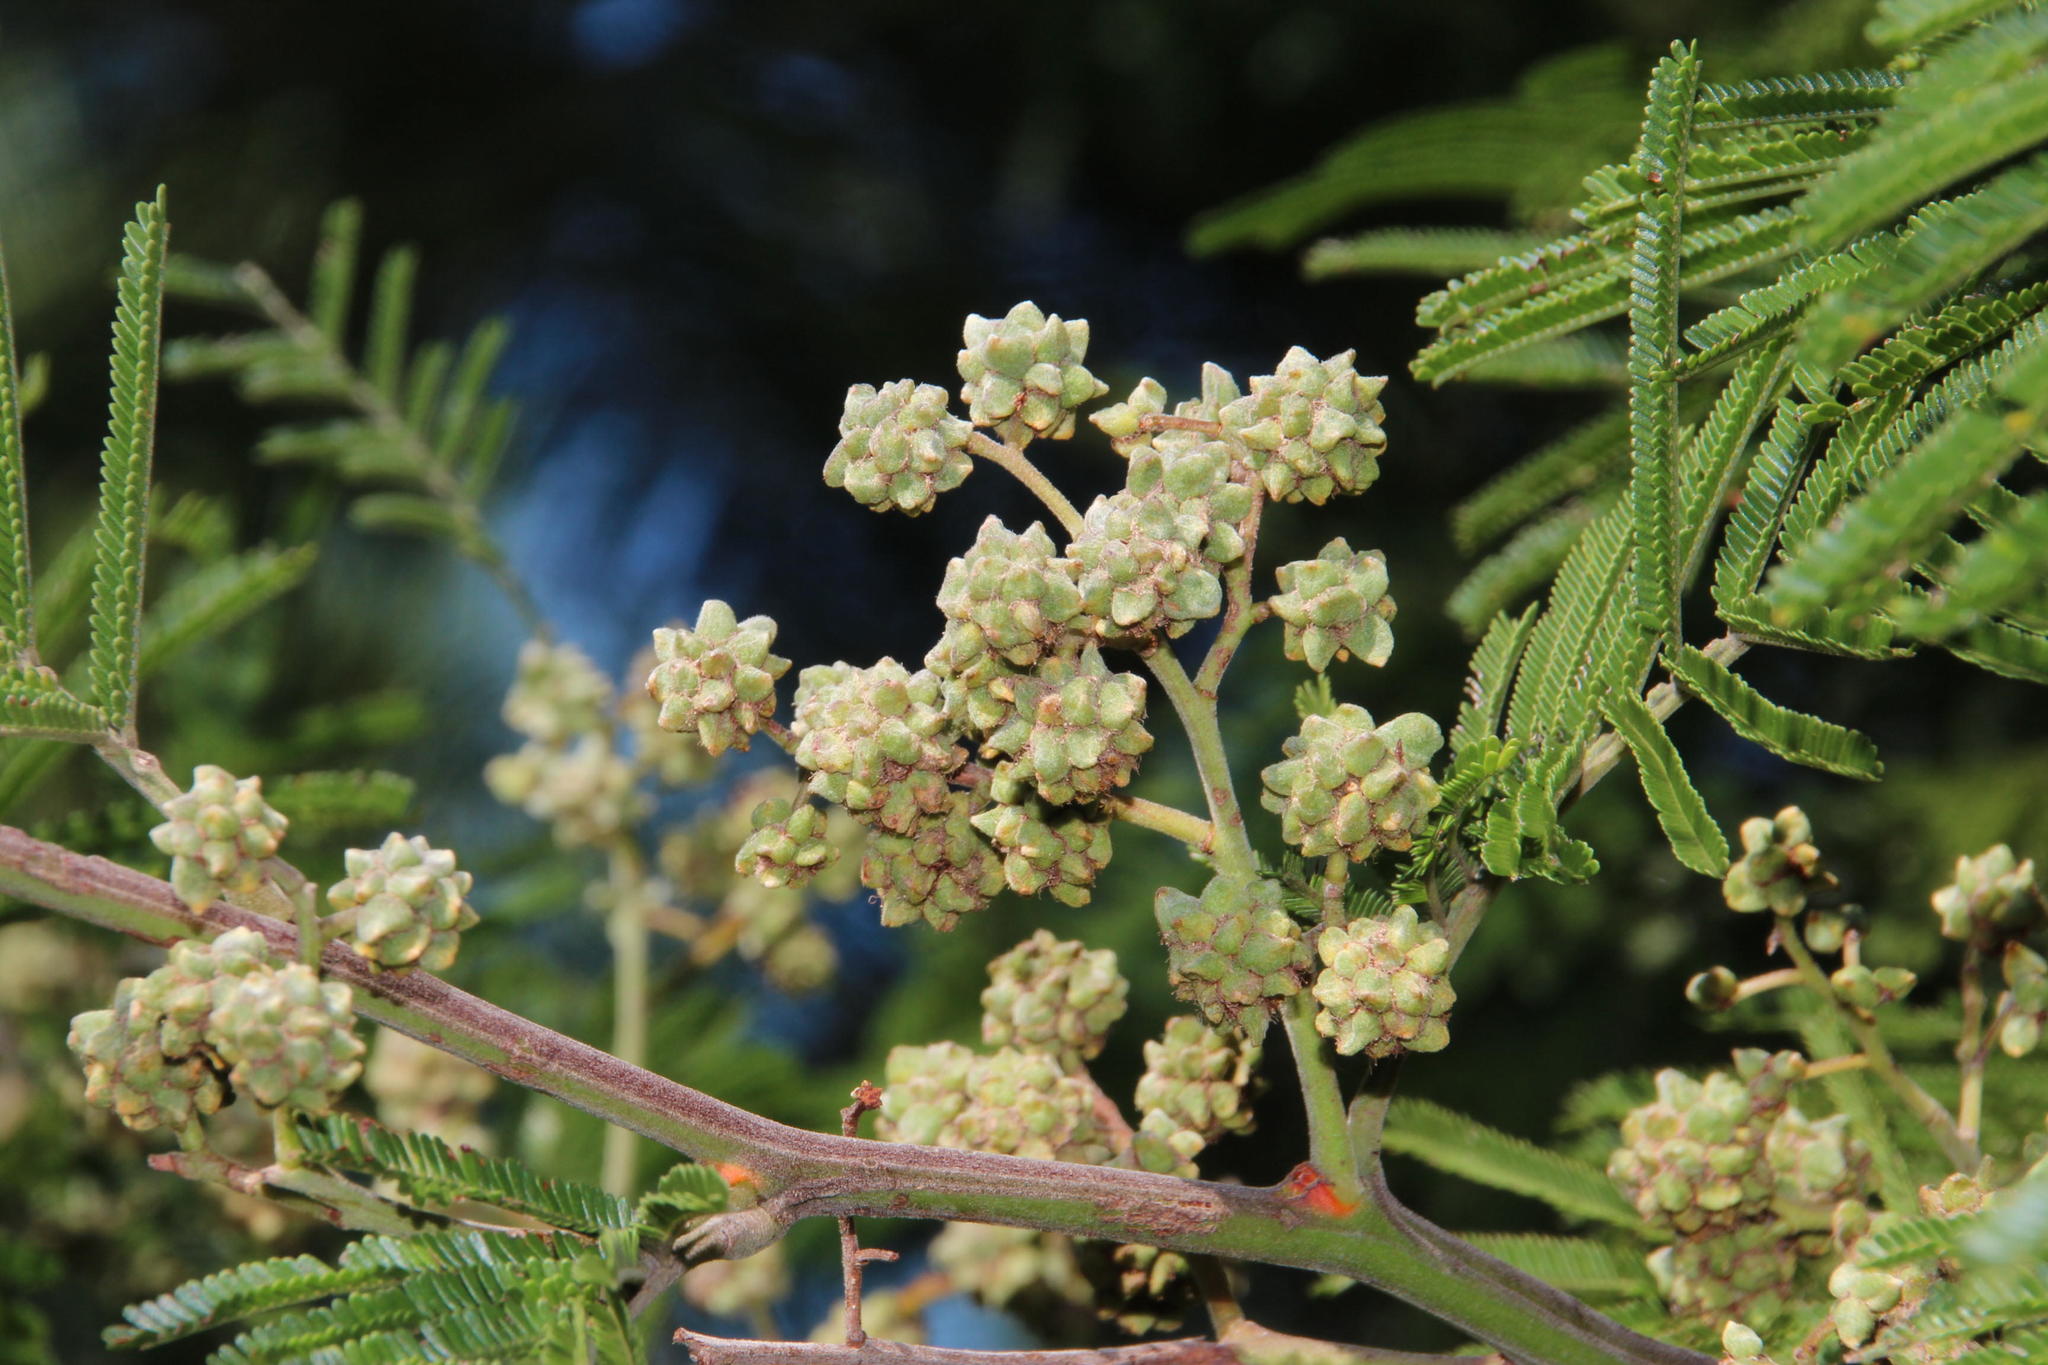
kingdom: Animalia
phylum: Arthropoda
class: Insecta
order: Diptera
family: Cecidomyiidae
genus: Dasineura
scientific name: Dasineura rubiformis
